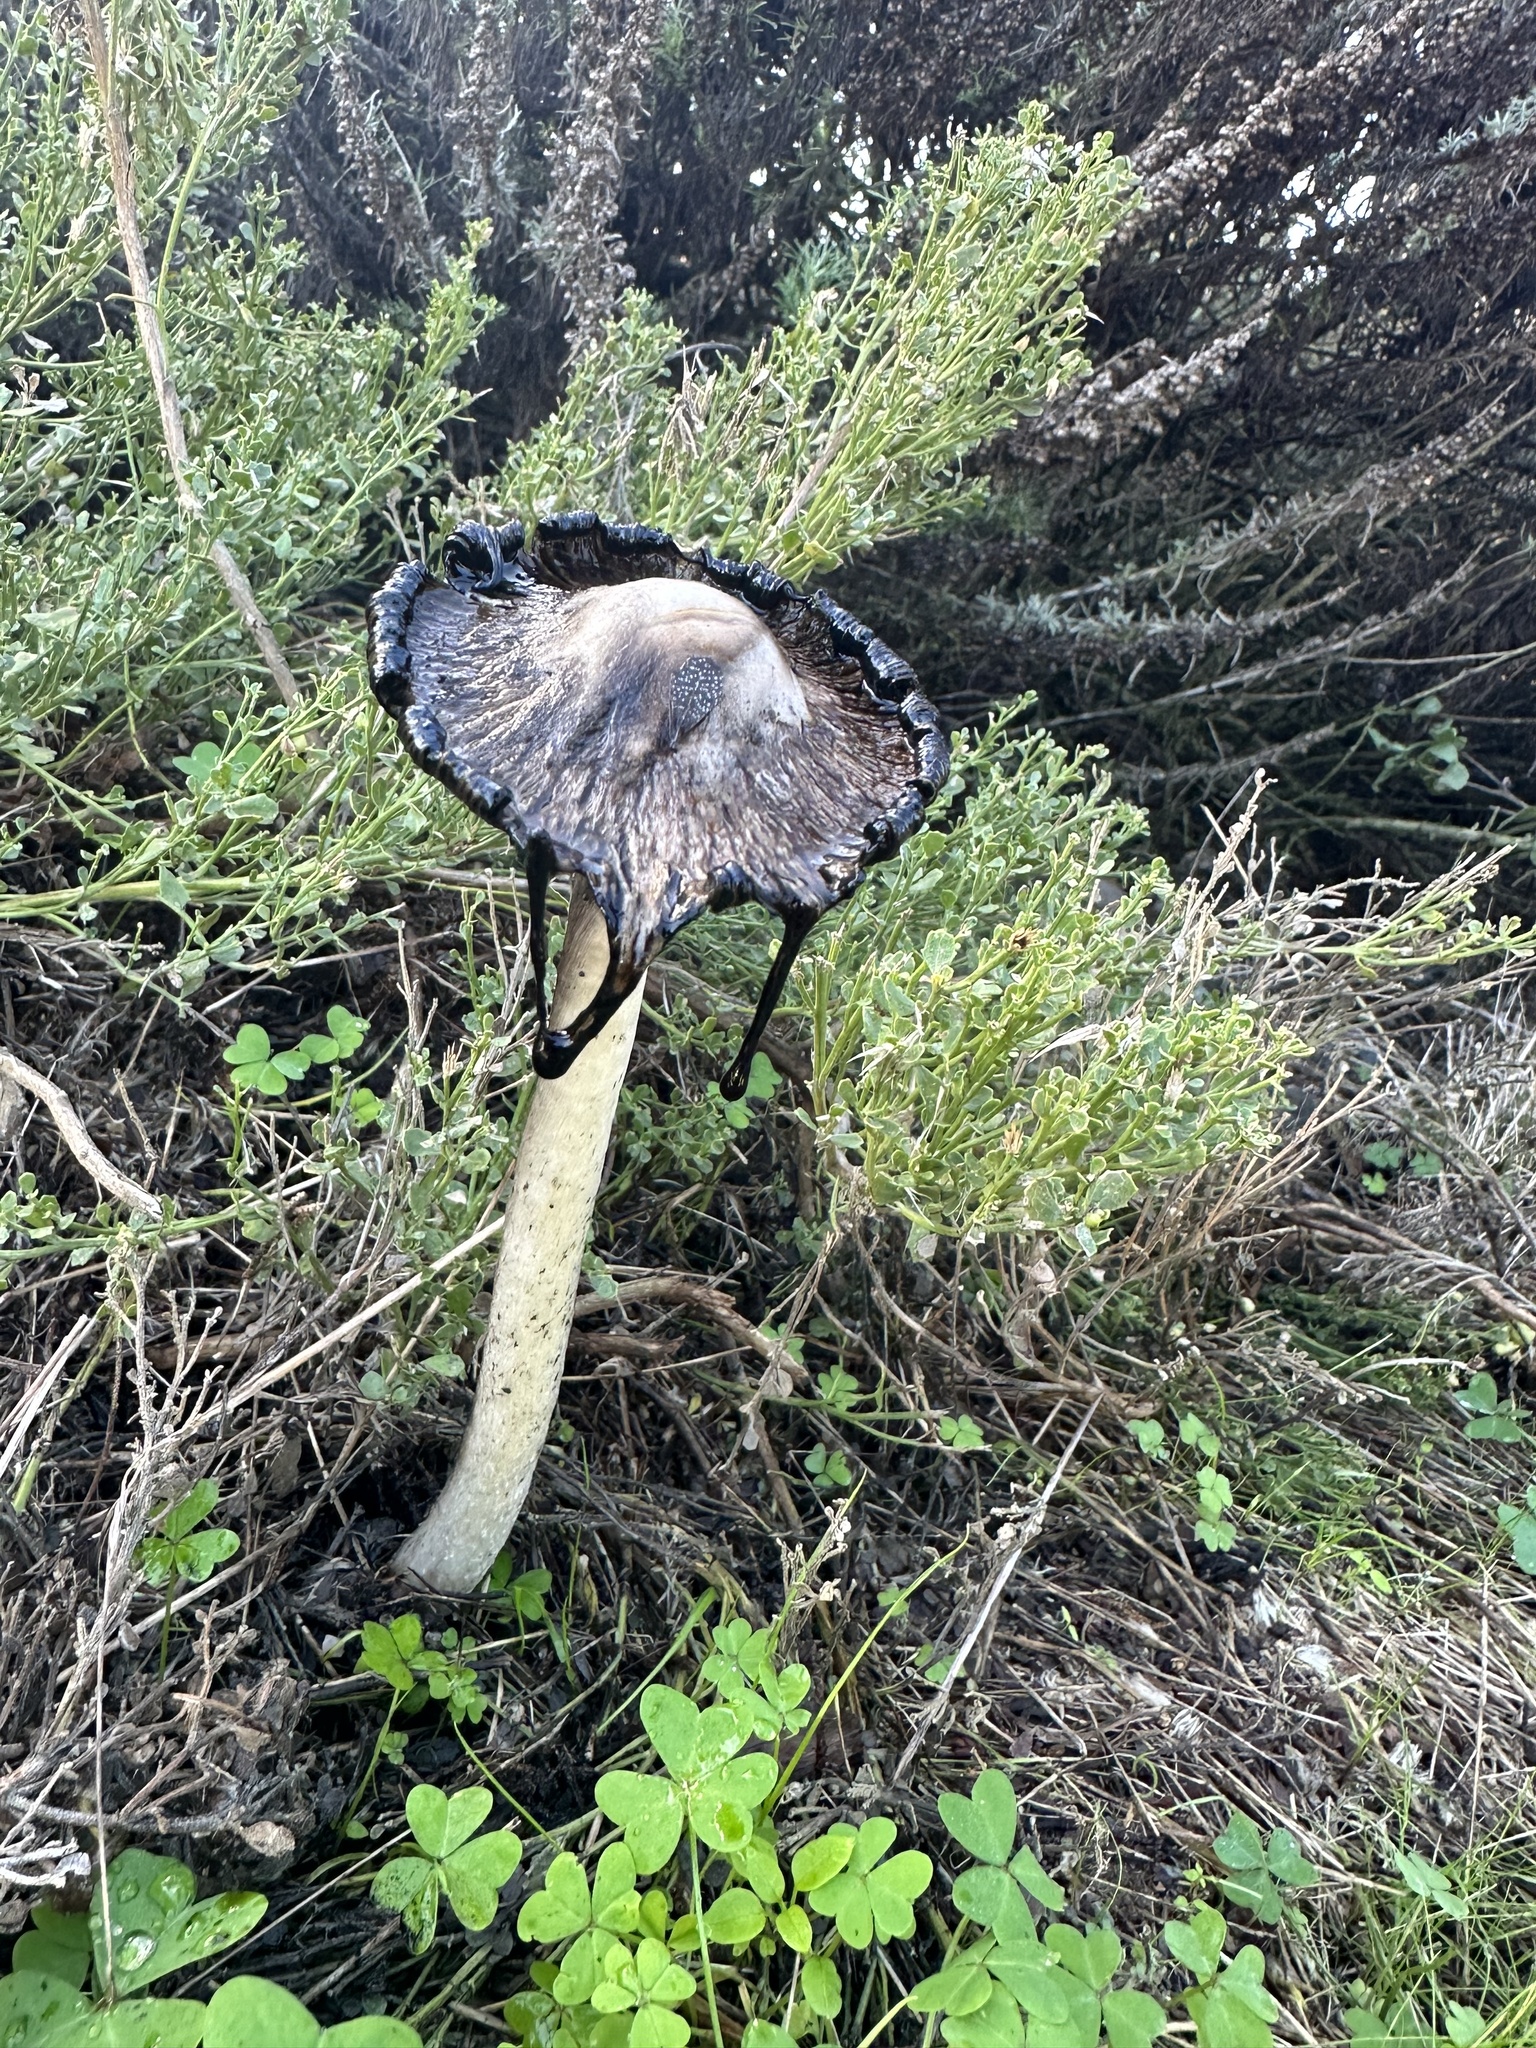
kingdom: Fungi
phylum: Basidiomycota
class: Agaricomycetes
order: Agaricales
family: Agaricaceae
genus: Coprinus
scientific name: Coprinus comatus
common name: Lawyer's wig
